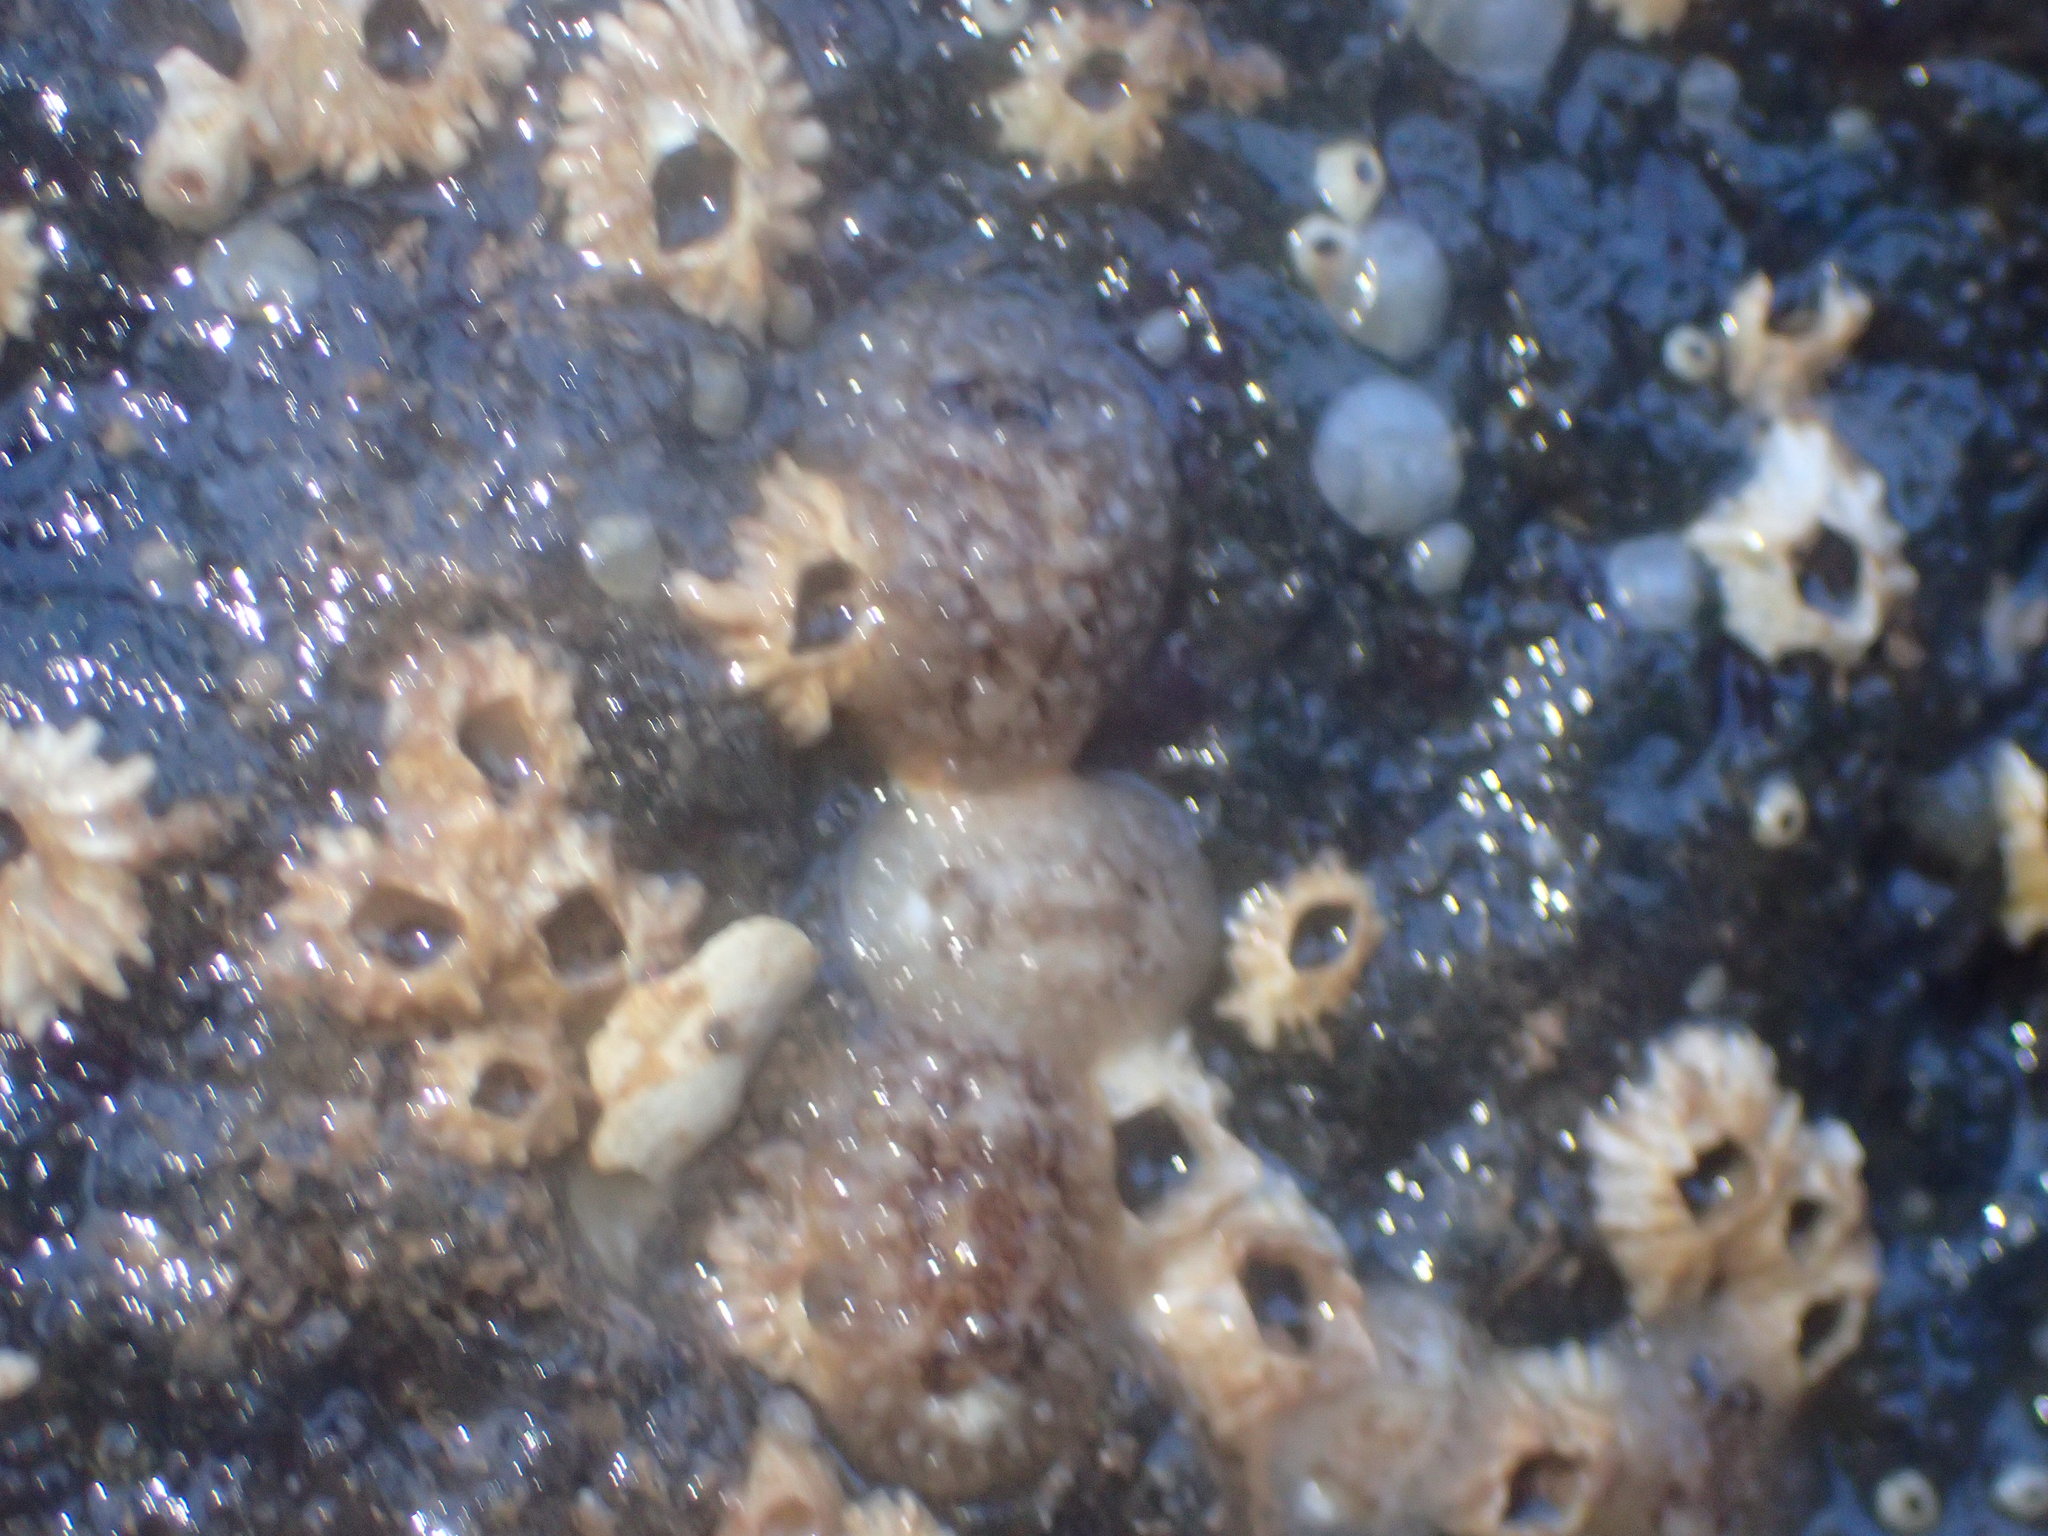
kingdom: Animalia
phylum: Mollusca
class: Gastropoda
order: Nudibranchia
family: Onchidorididae
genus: Onchidoris
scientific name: Onchidoris bilamellata
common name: Barnacle-eating onchidoris
